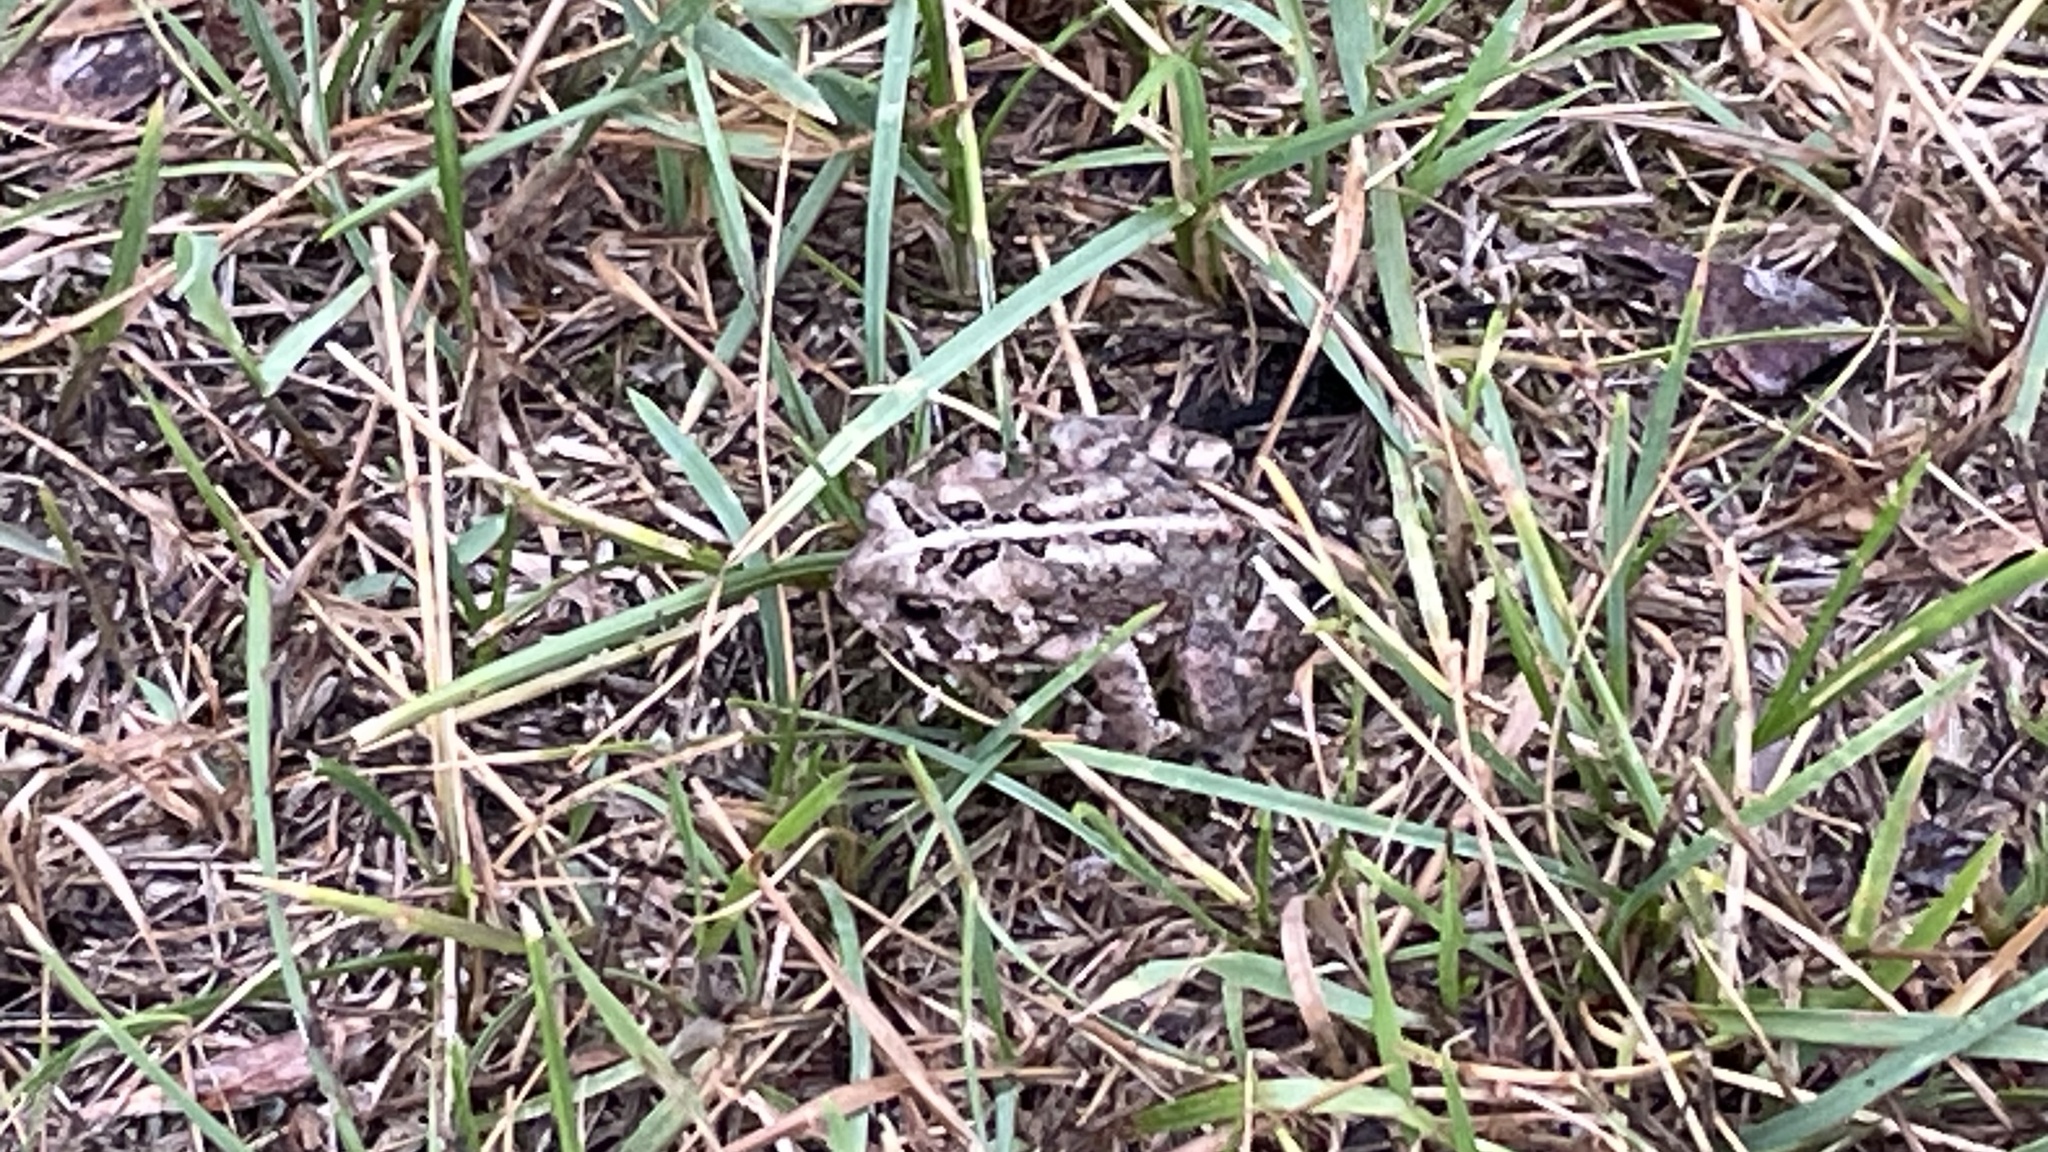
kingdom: Animalia
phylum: Chordata
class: Amphibia
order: Anura
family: Bufonidae
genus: Anaxyrus
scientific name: Anaxyrus americanus
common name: American toad
